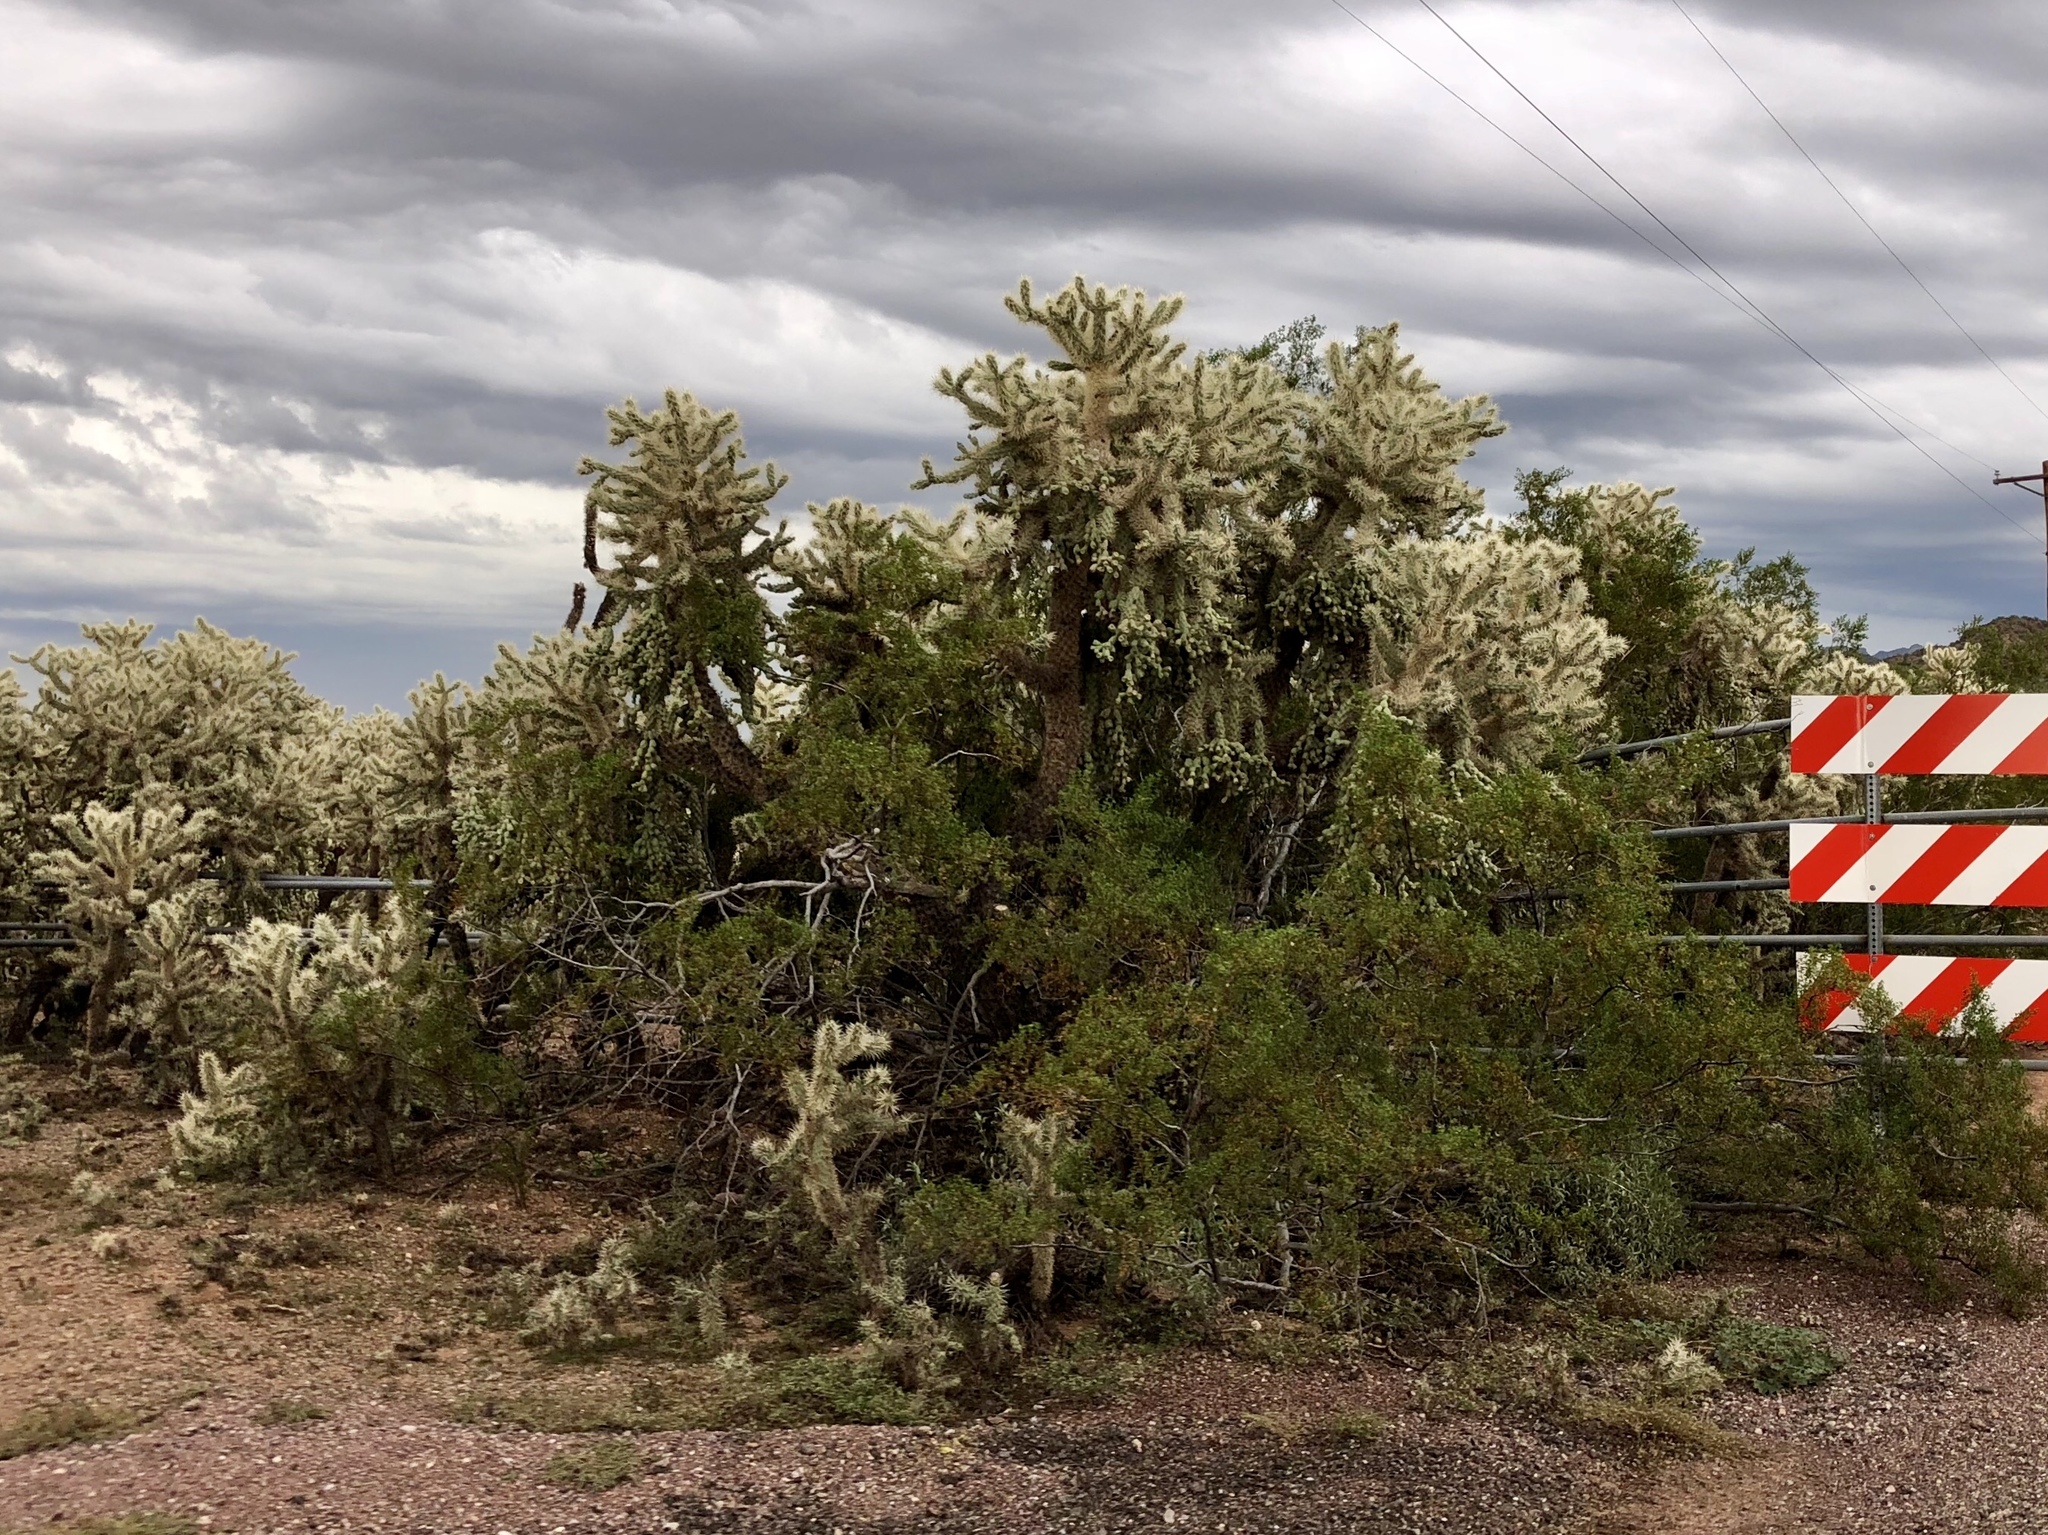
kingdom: Plantae
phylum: Tracheophyta
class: Magnoliopsida
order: Zygophyllales
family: Zygophyllaceae
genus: Larrea
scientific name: Larrea tridentata
